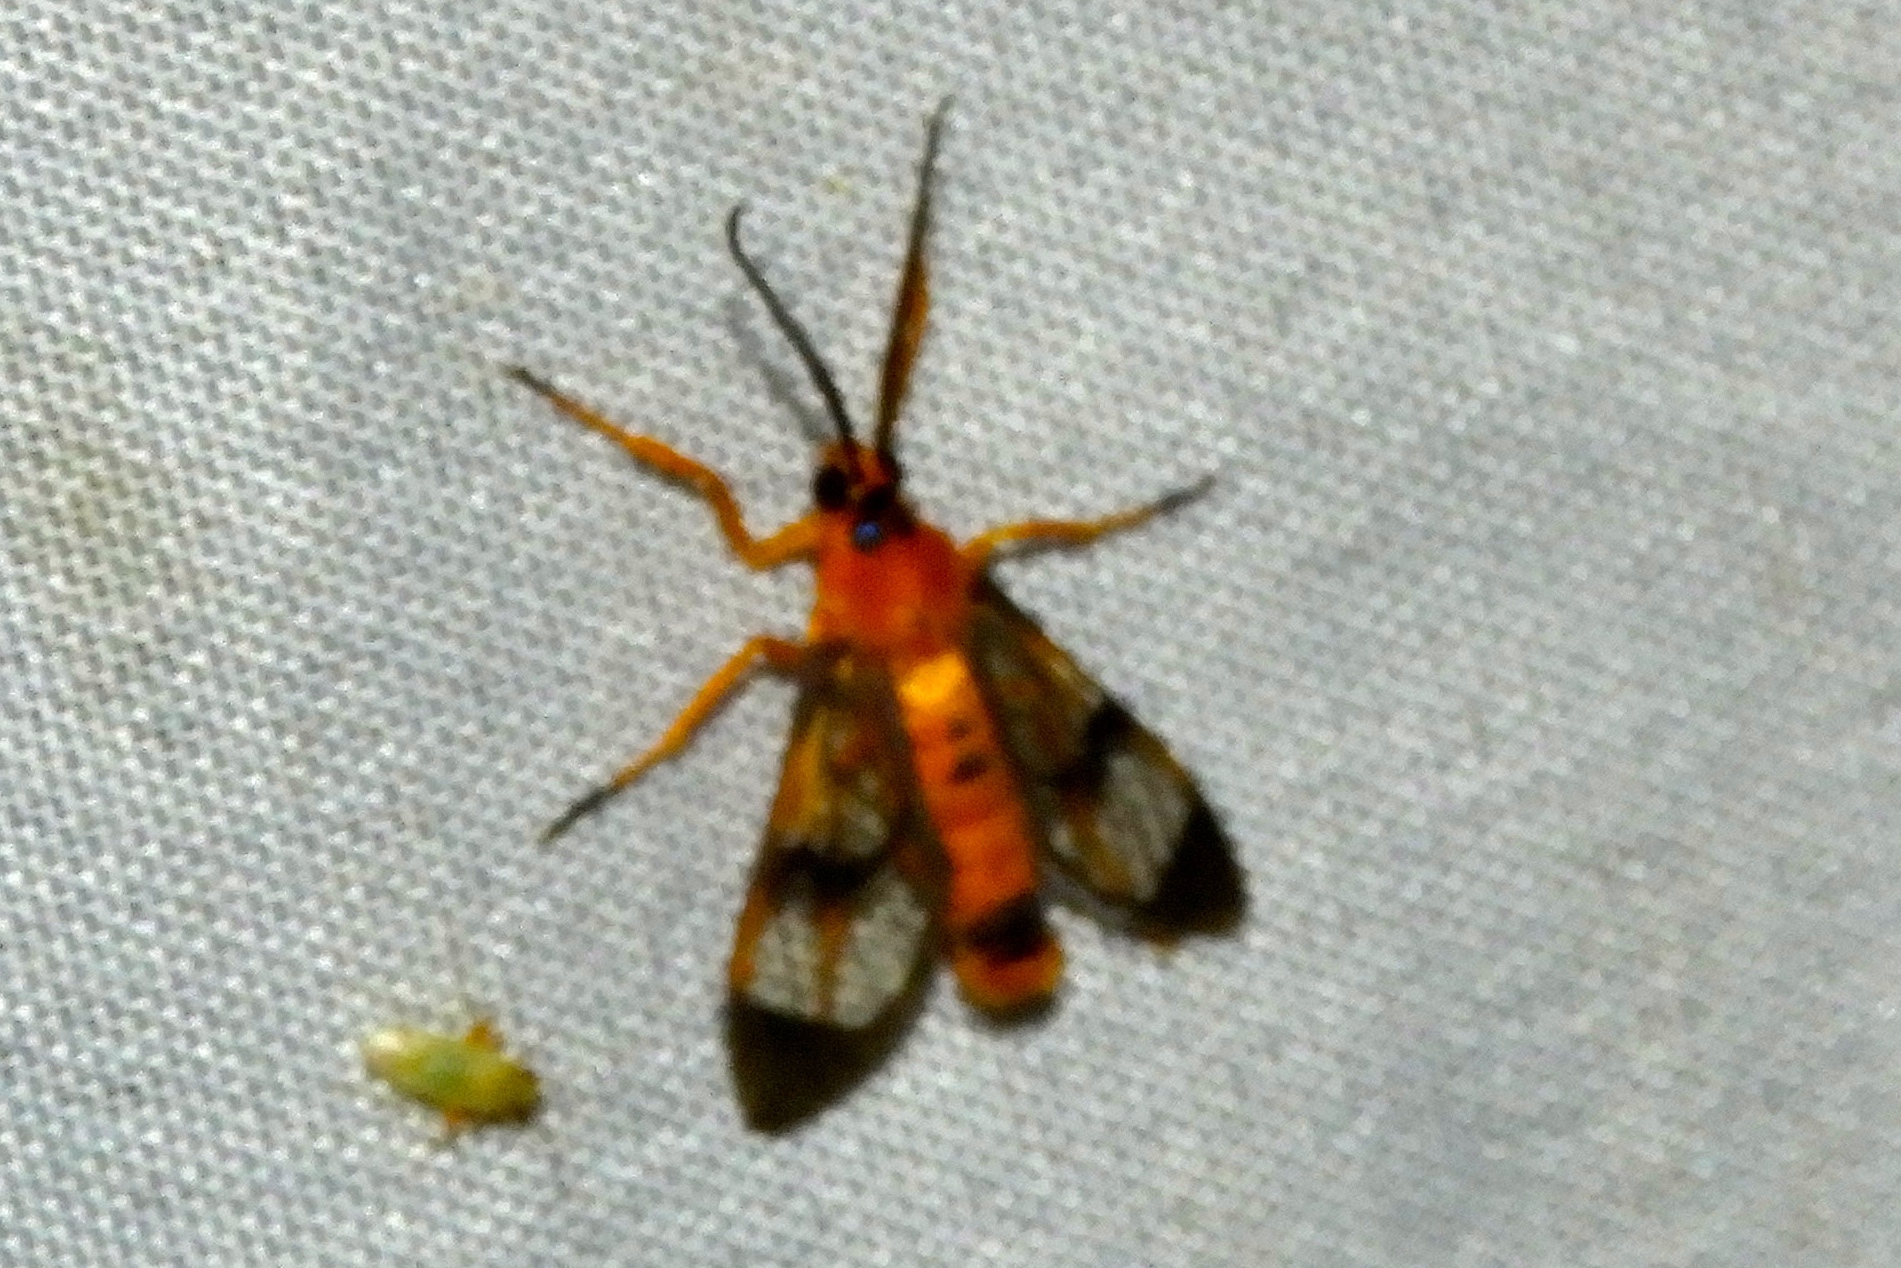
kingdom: Animalia
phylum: Arthropoda
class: Insecta
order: Lepidoptera
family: Erebidae
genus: Pseudosphex
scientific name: Pseudosphex leovazquezae
